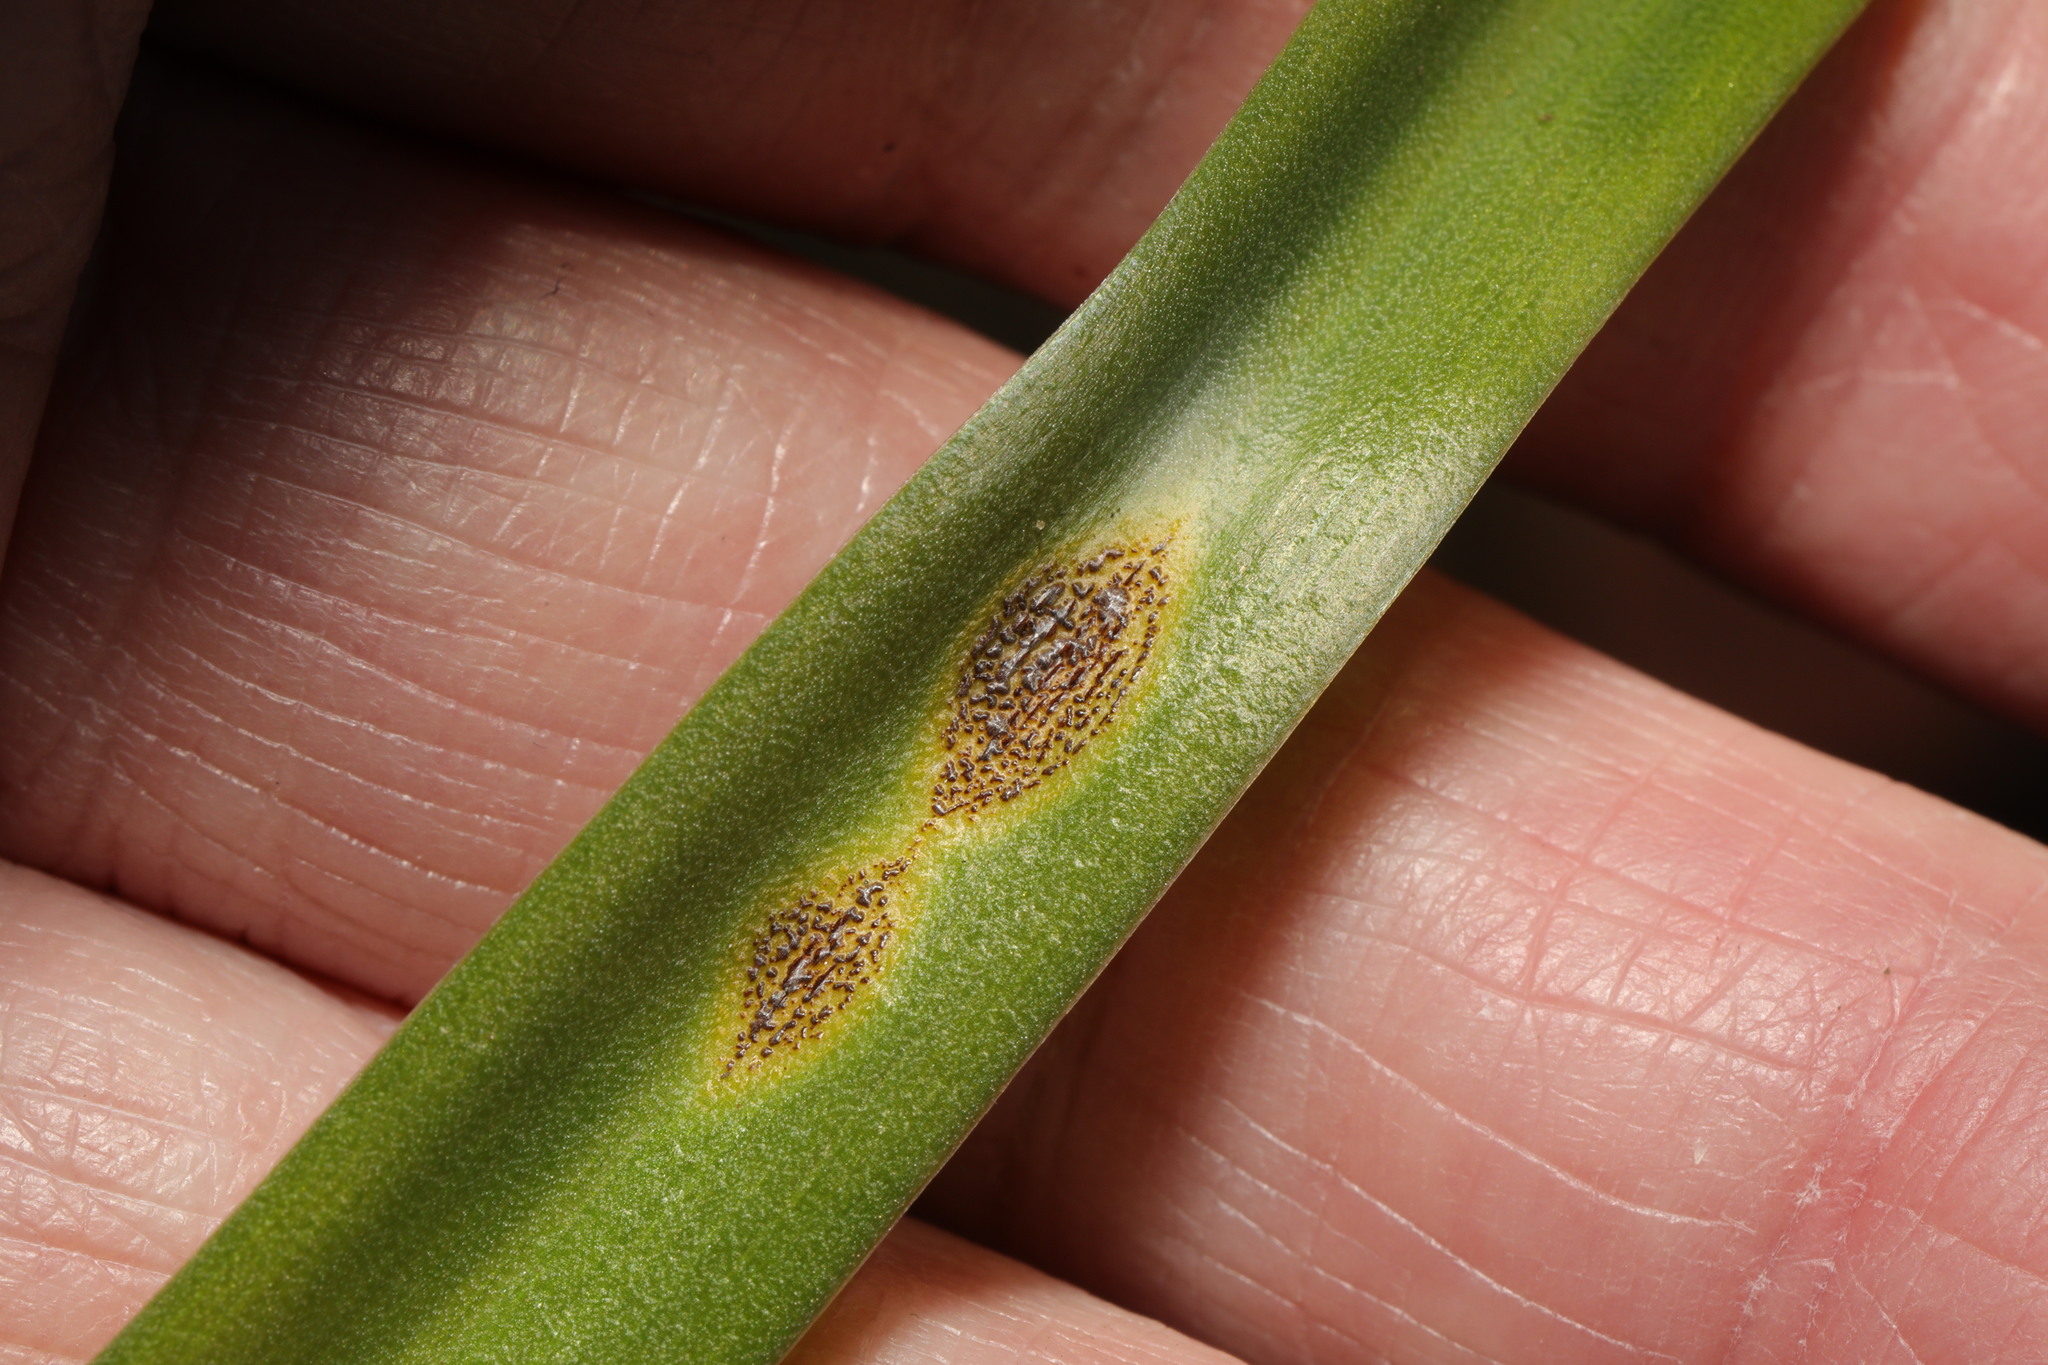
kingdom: Fungi
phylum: Basidiomycota
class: Pucciniomycetes
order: Pucciniales
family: Pucciniaceae
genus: Uromyces
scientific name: Uromyces hyacinthi
